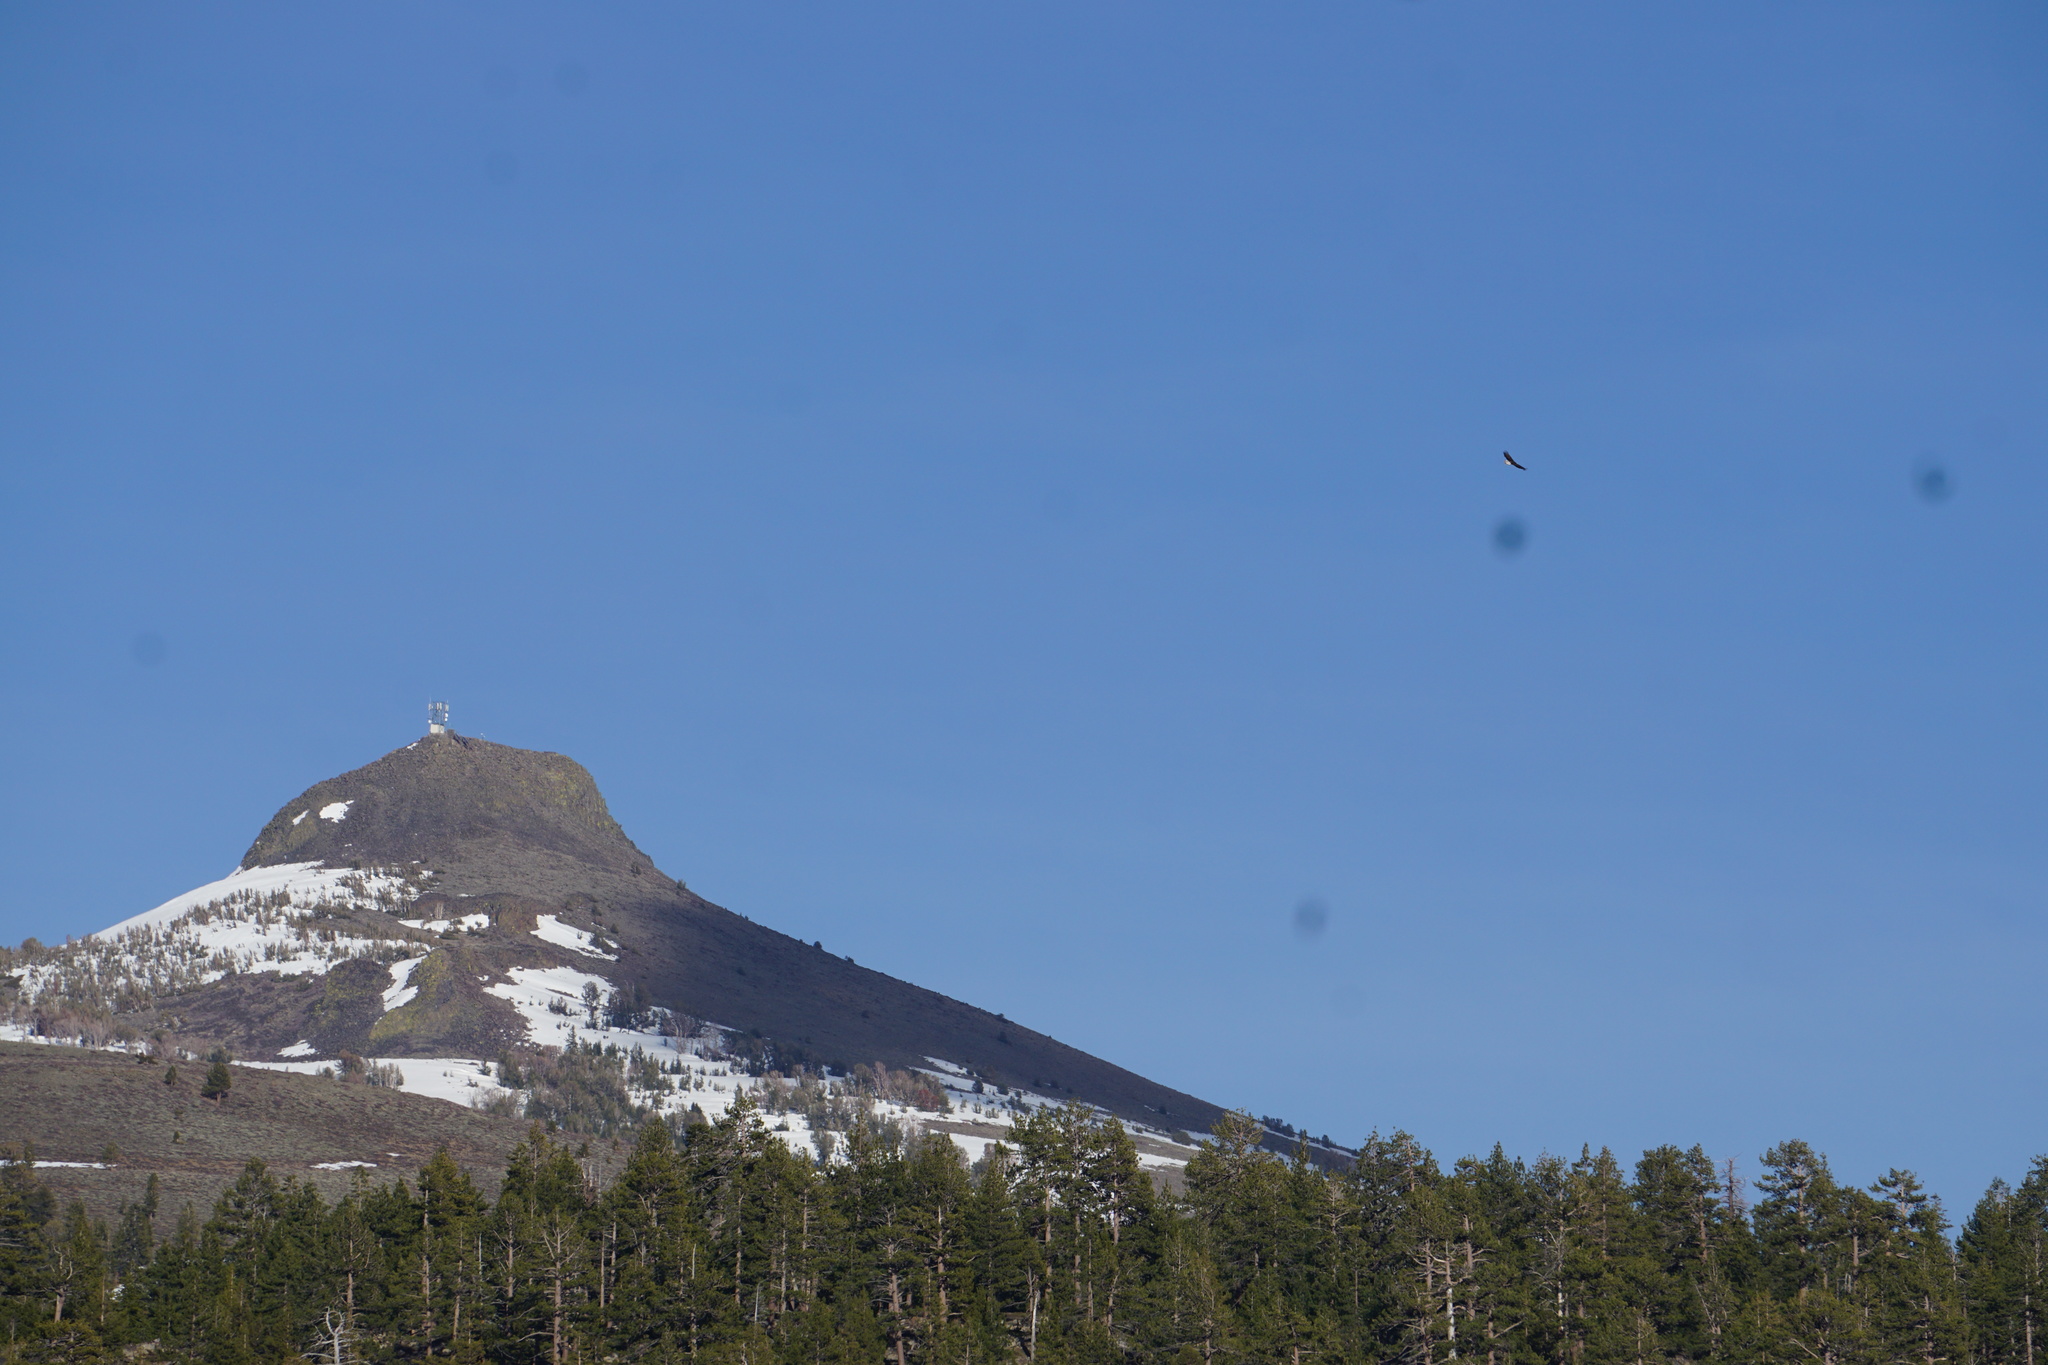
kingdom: Animalia
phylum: Chordata
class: Aves
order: Accipitriformes
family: Accipitridae
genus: Haliaeetus
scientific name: Haliaeetus leucocephalus
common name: Bald eagle
